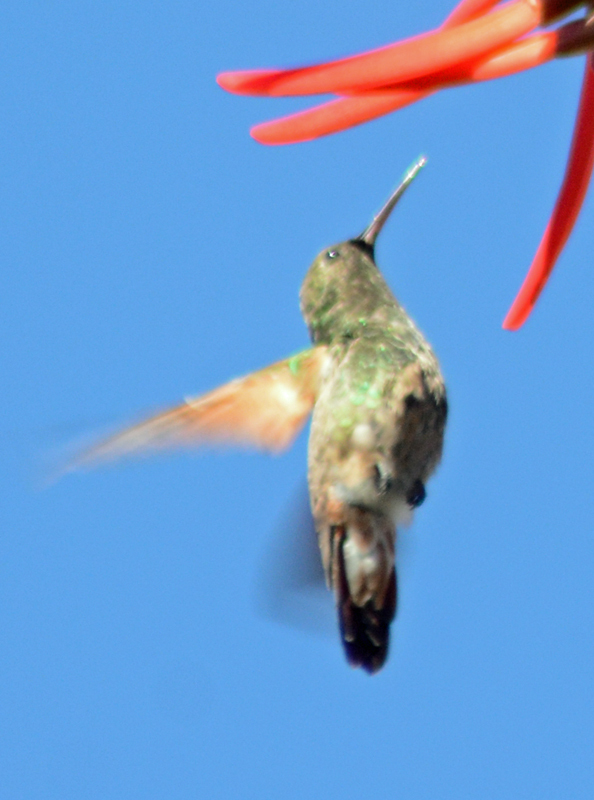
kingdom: Animalia
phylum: Chordata
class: Aves
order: Apodiformes
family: Trochilidae
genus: Saucerottia
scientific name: Saucerottia beryllina
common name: Berylline hummingbird
